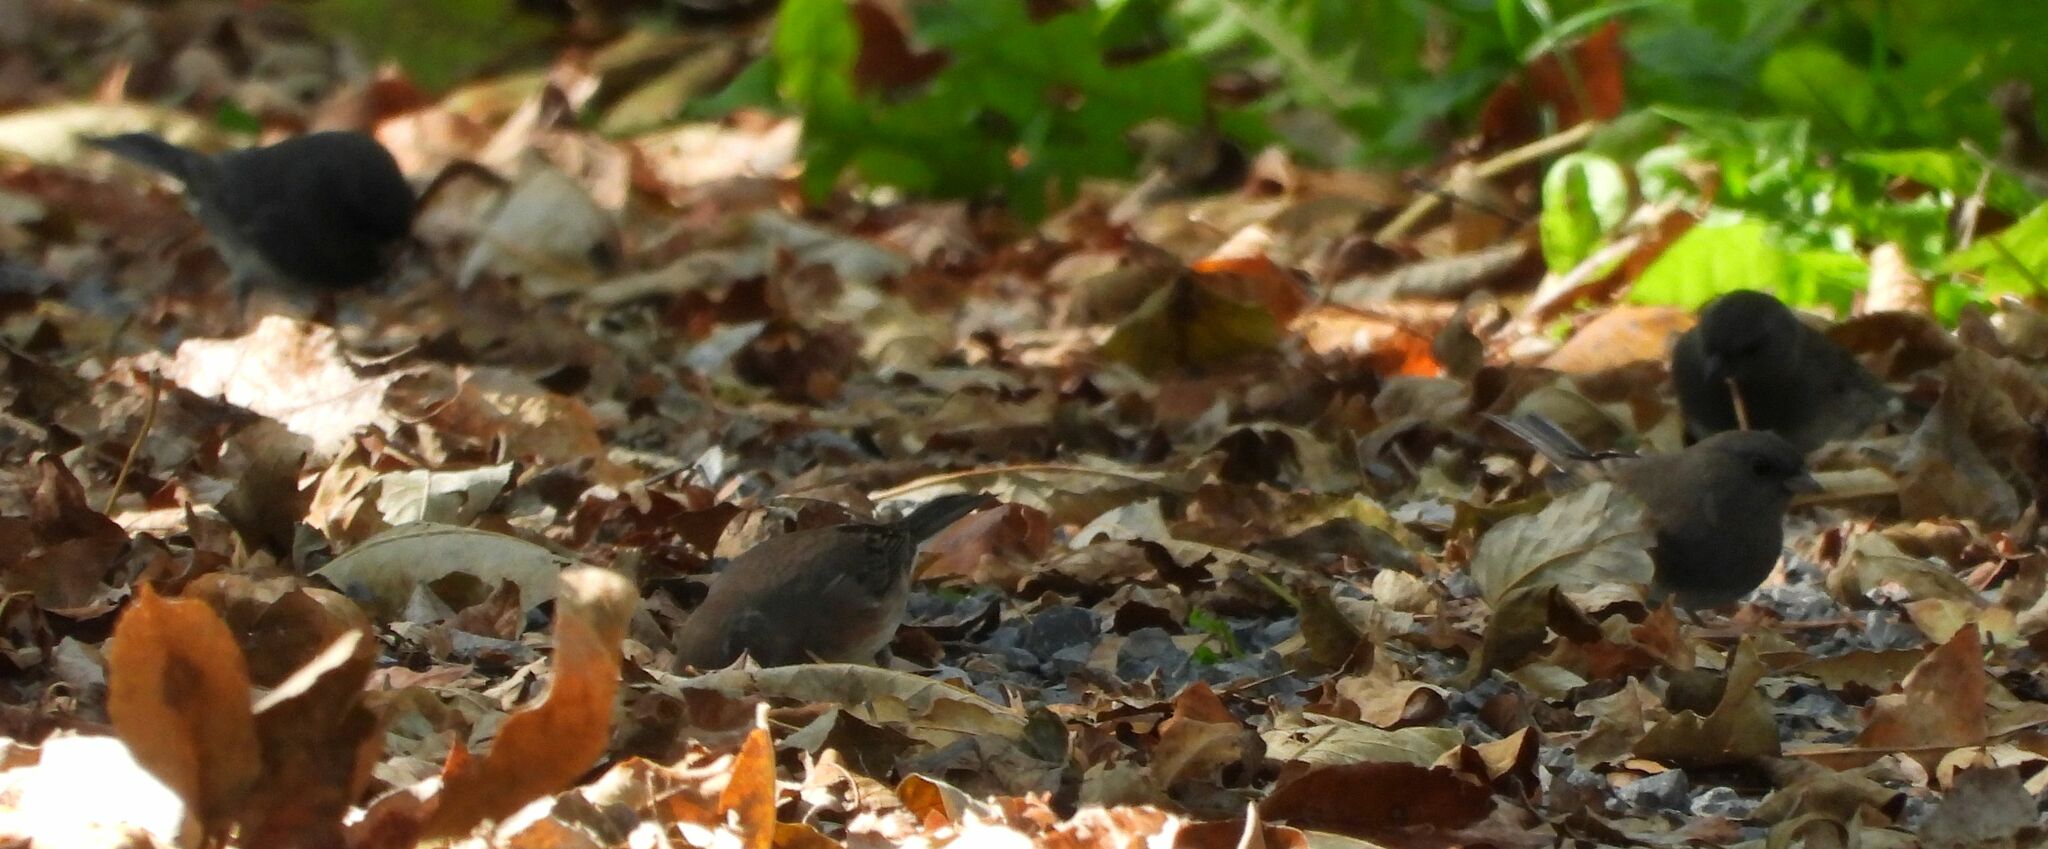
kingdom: Animalia
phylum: Chordata
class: Aves
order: Passeriformes
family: Passerellidae
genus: Junco
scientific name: Junco hyemalis
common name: Dark-eyed junco
